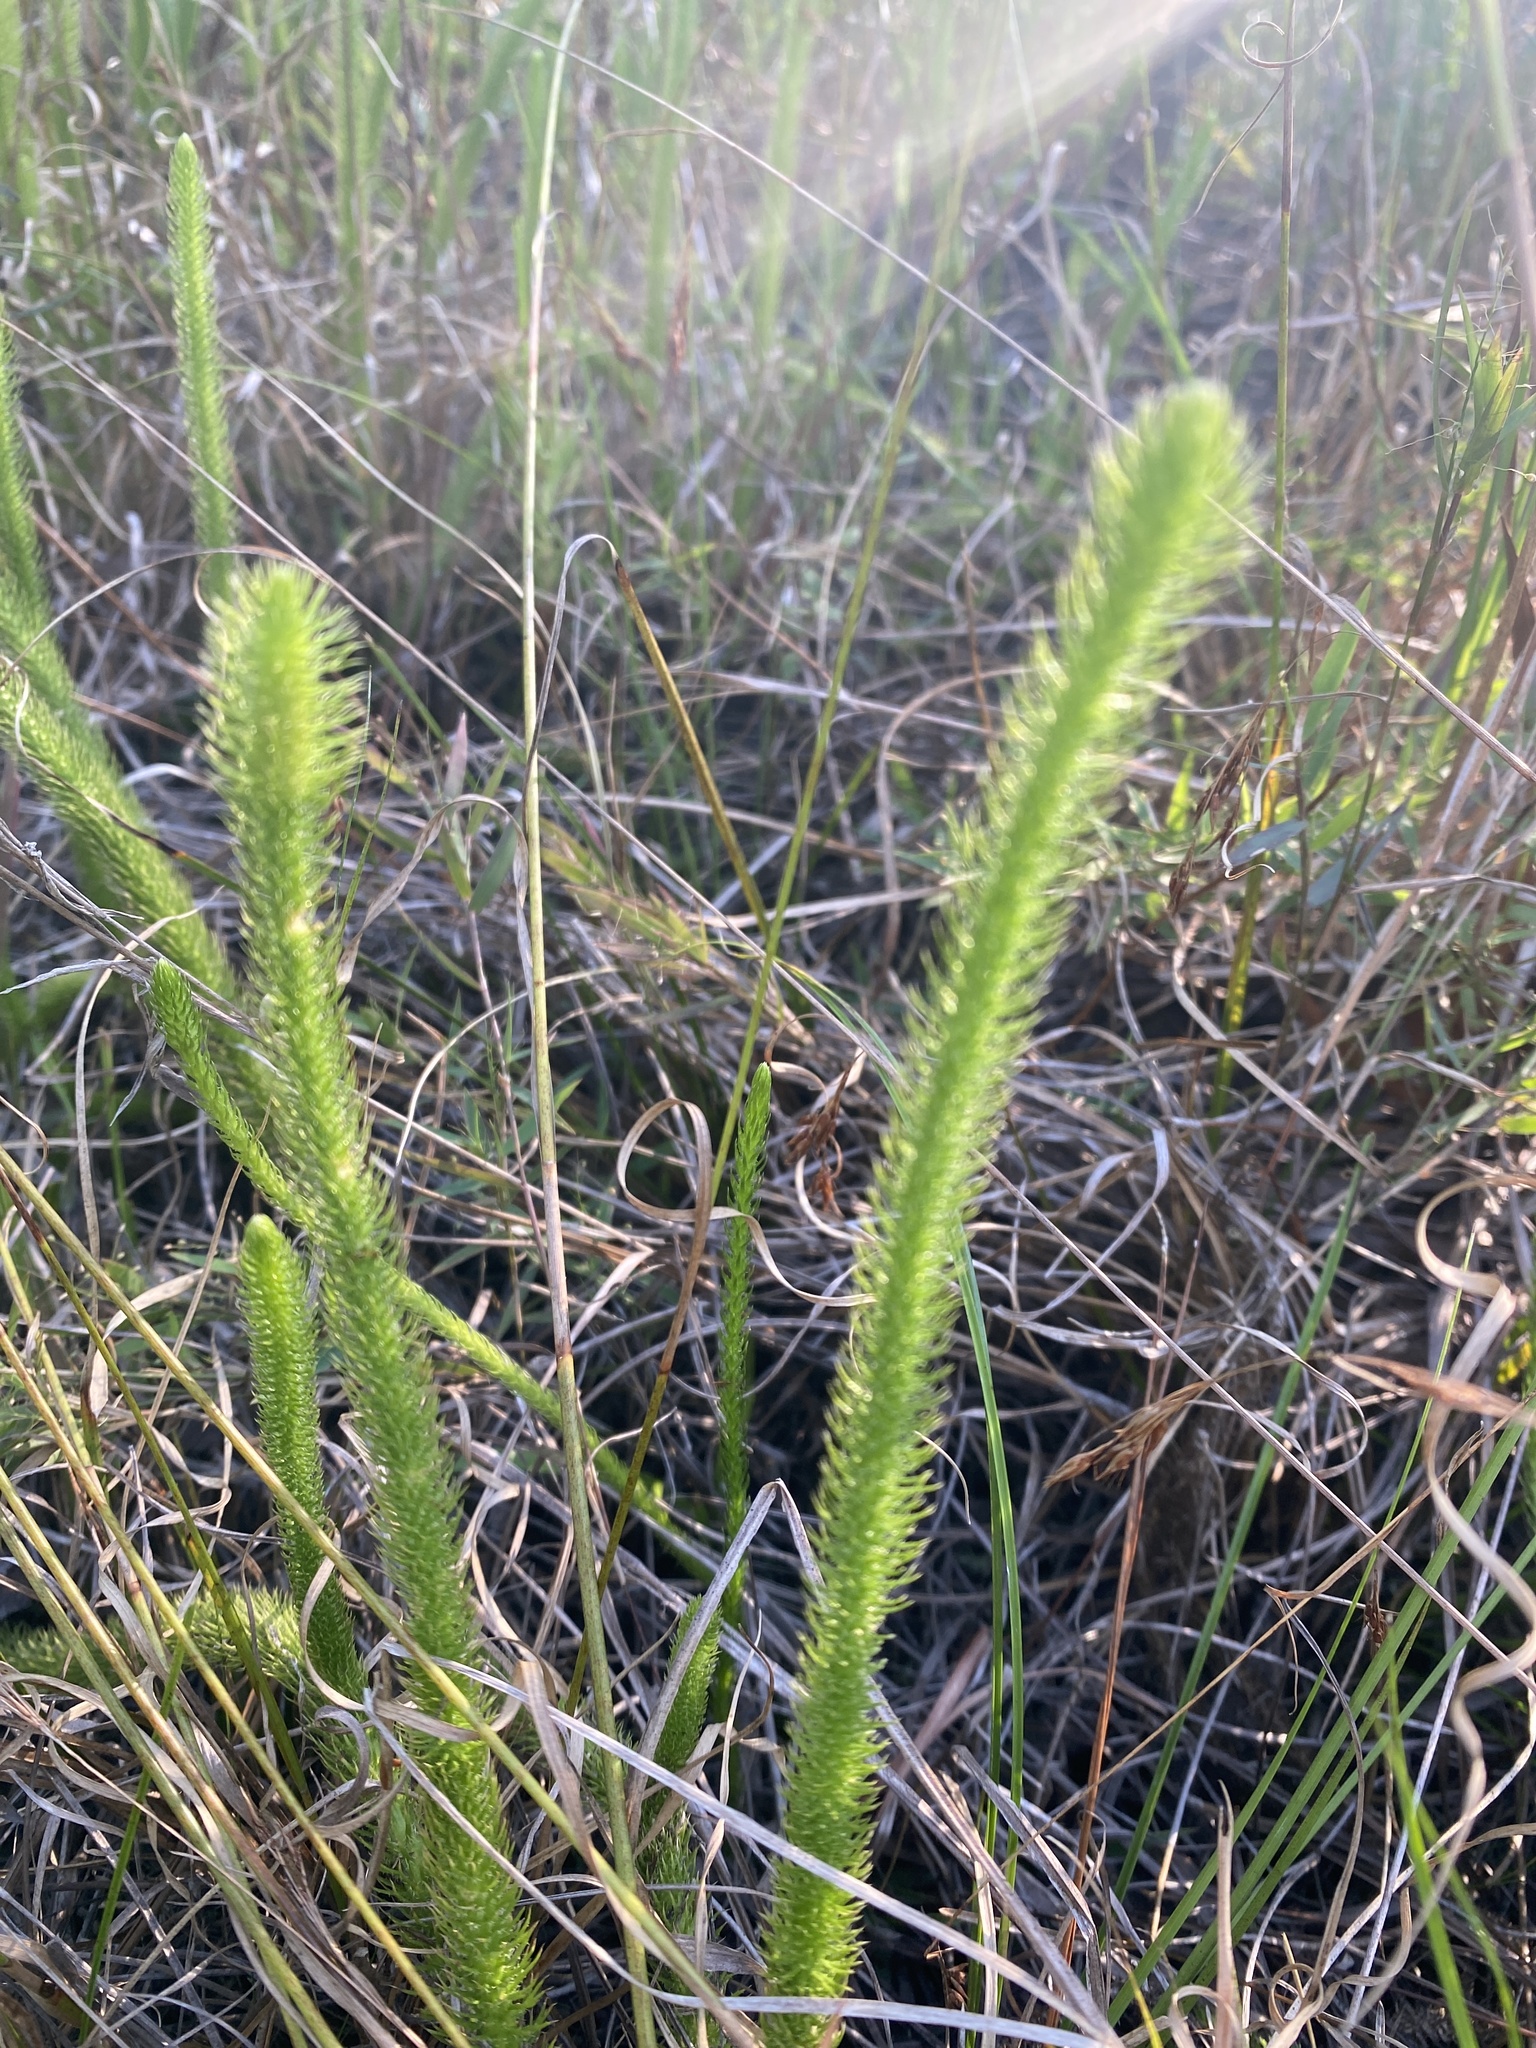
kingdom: Plantae
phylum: Tracheophyta
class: Lycopodiopsida
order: Lycopodiales
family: Lycopodiaceae
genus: Lycopodiella
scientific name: Lycopodiella alopecuroides
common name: Foxtail clubmoss
